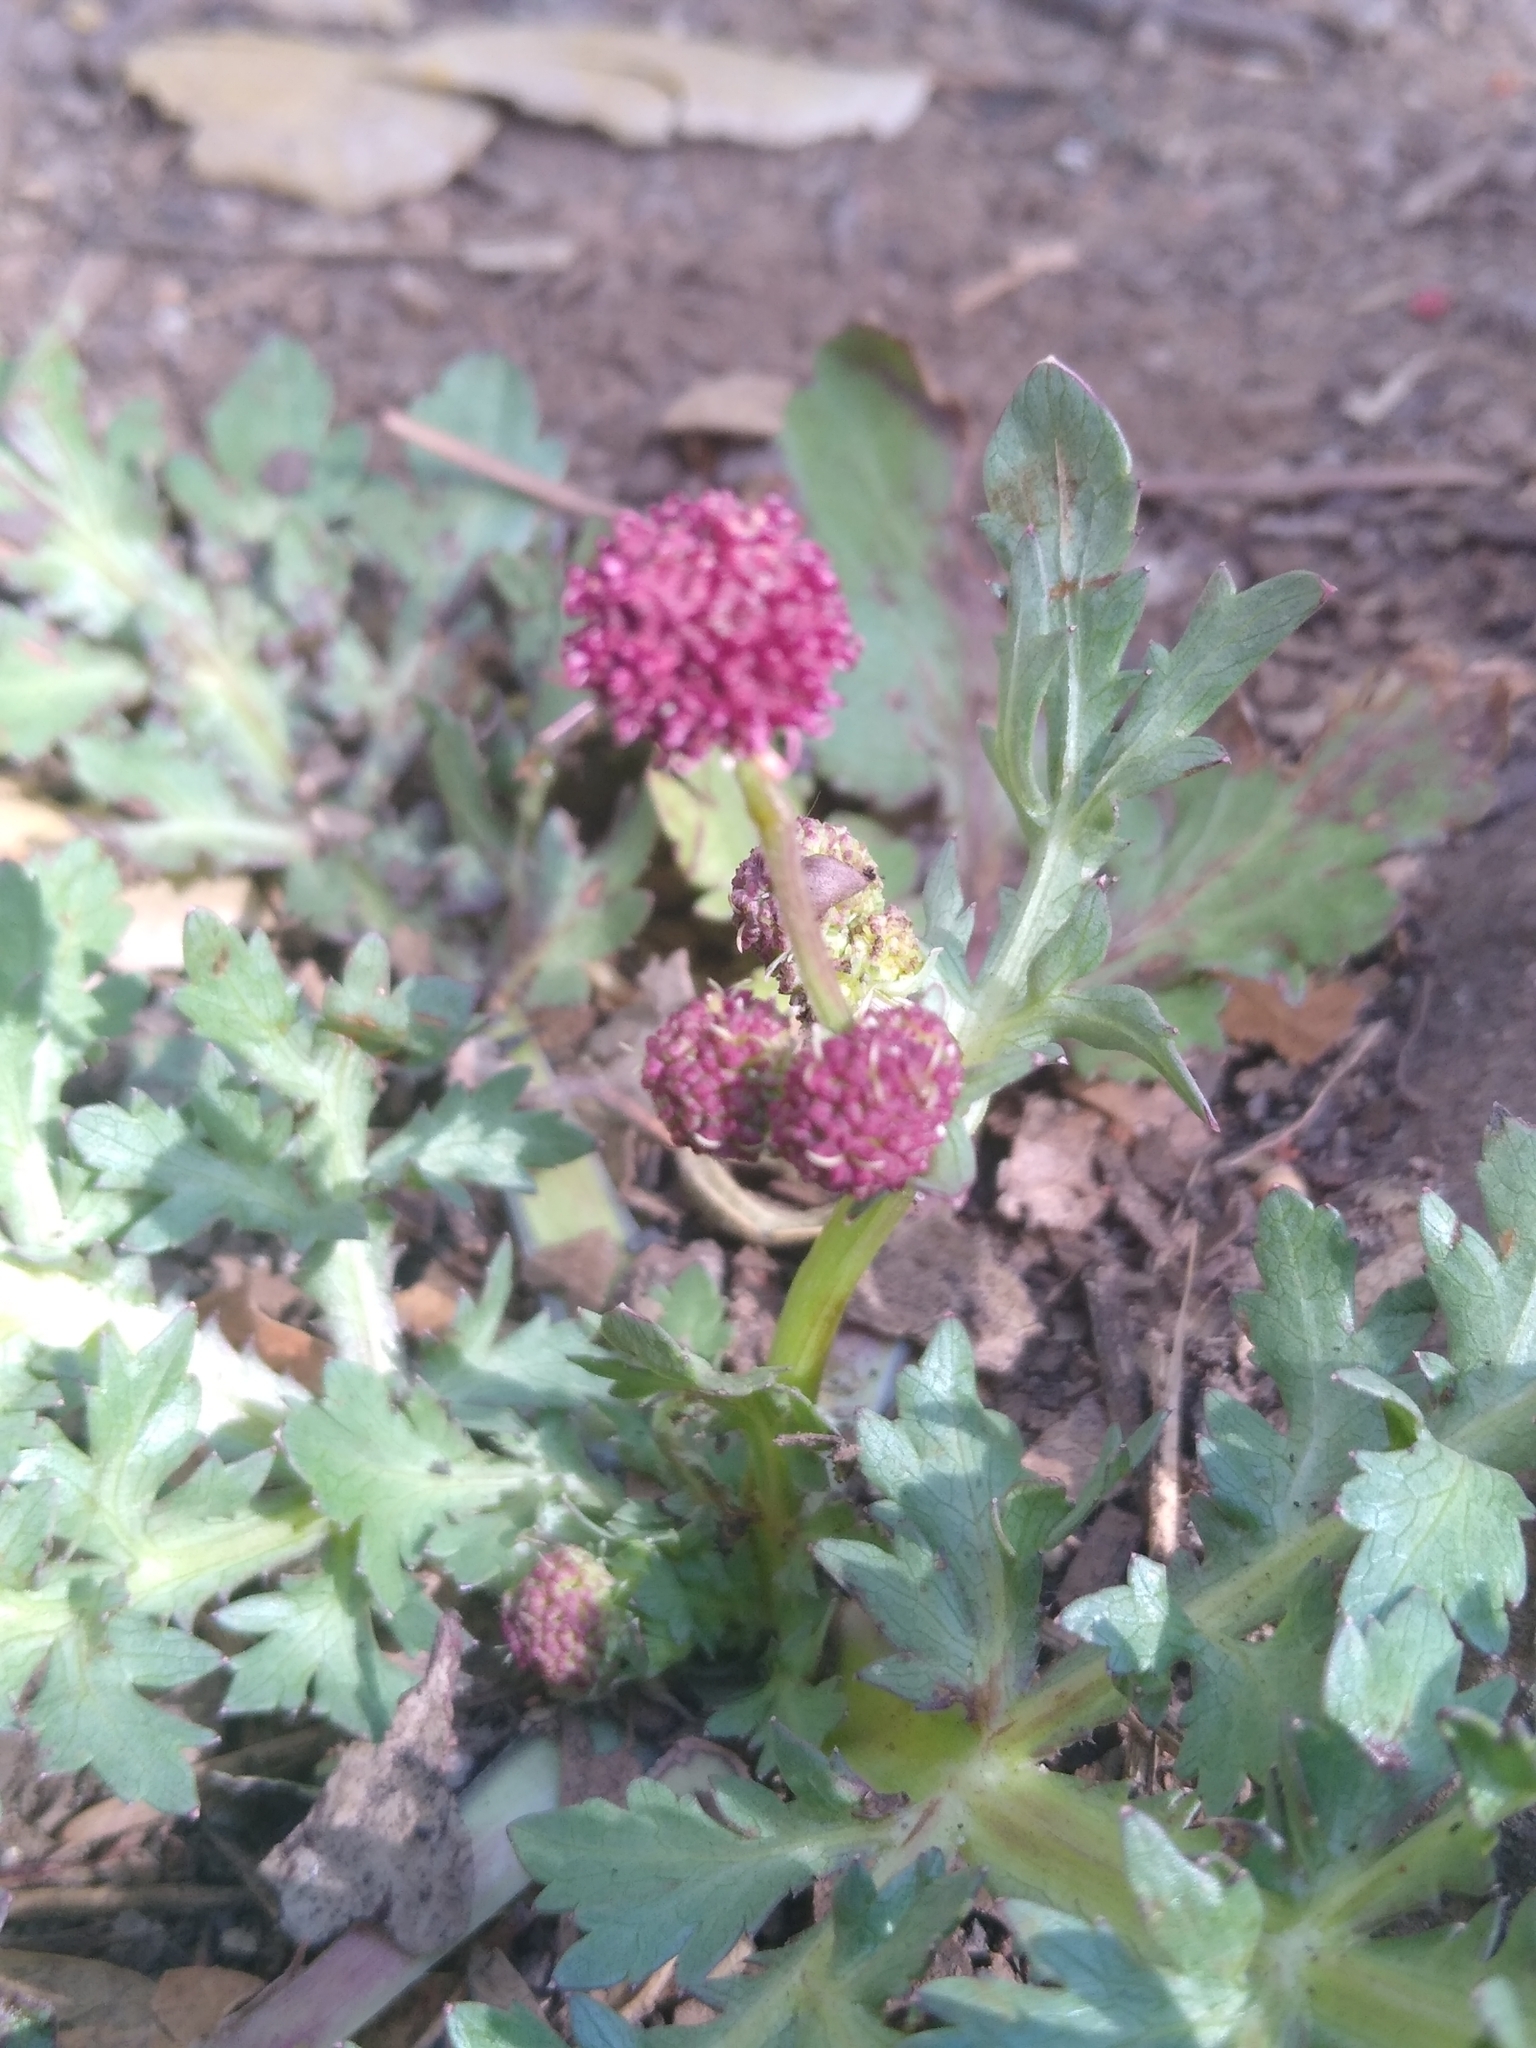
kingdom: Plantae
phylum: Tracheophyta
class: Magnoliopsida
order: Apiales
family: Apiaceae
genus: Sanicula
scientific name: Sanicula bipinnatifida
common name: Shoe-buttons
